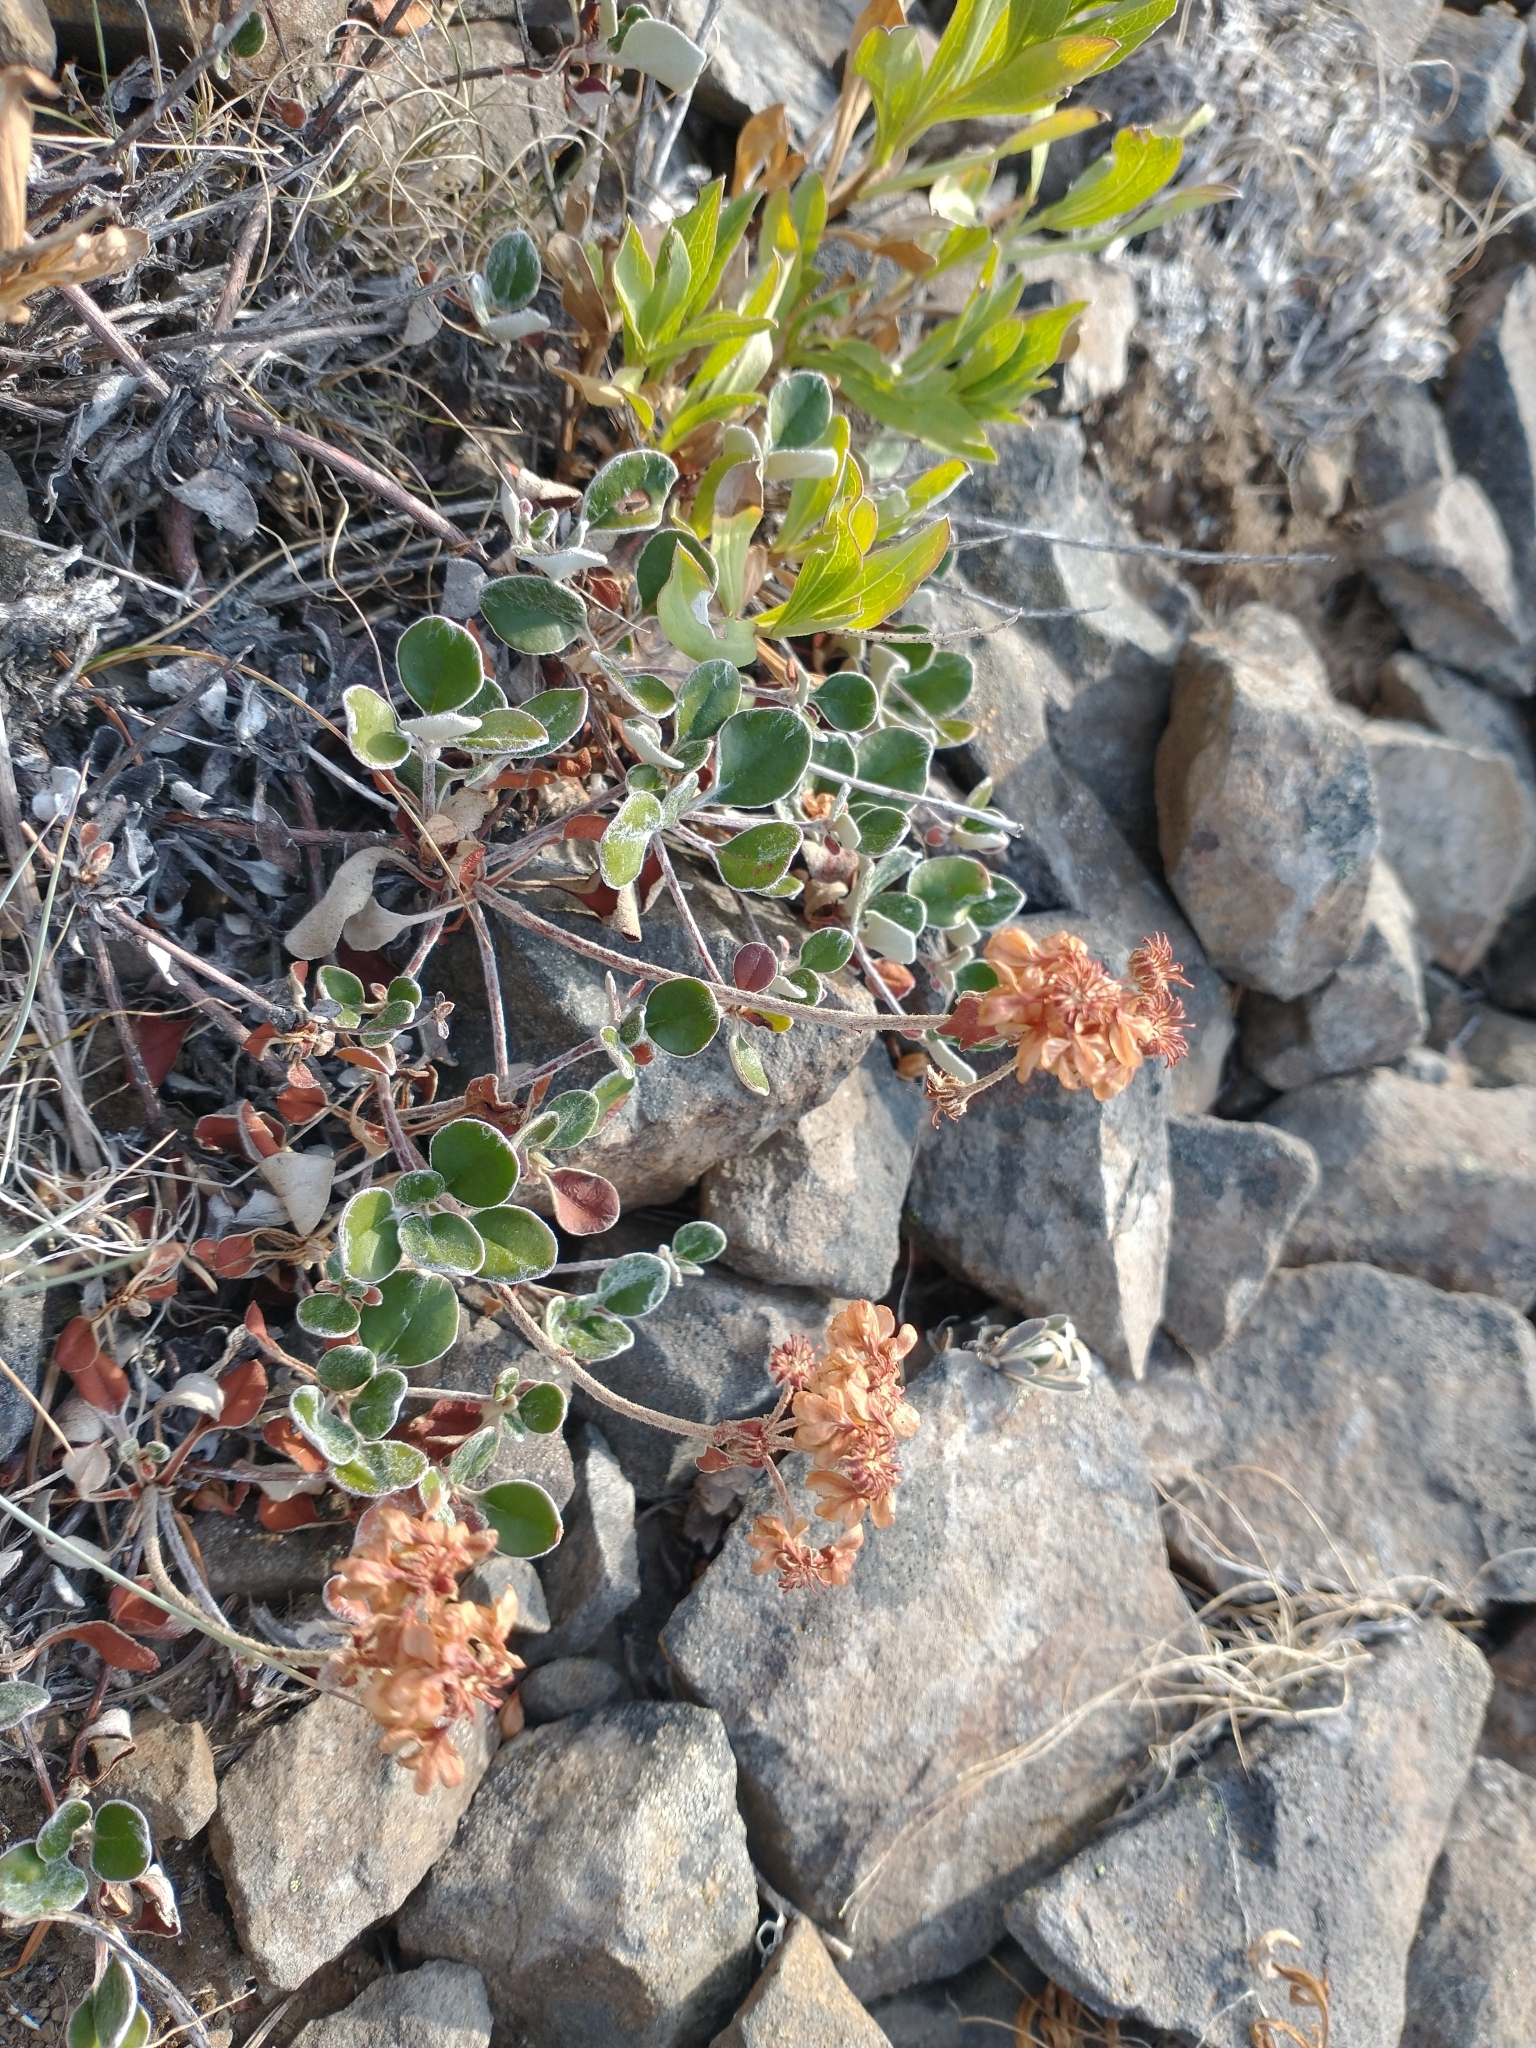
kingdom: Plantae
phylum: Tracheophyta
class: Magnoliopsida
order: Caryophyllales
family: Polygonaceae
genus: Eriogonum
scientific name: Eriogonum umbellatum
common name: Sulfur-buckwheat
